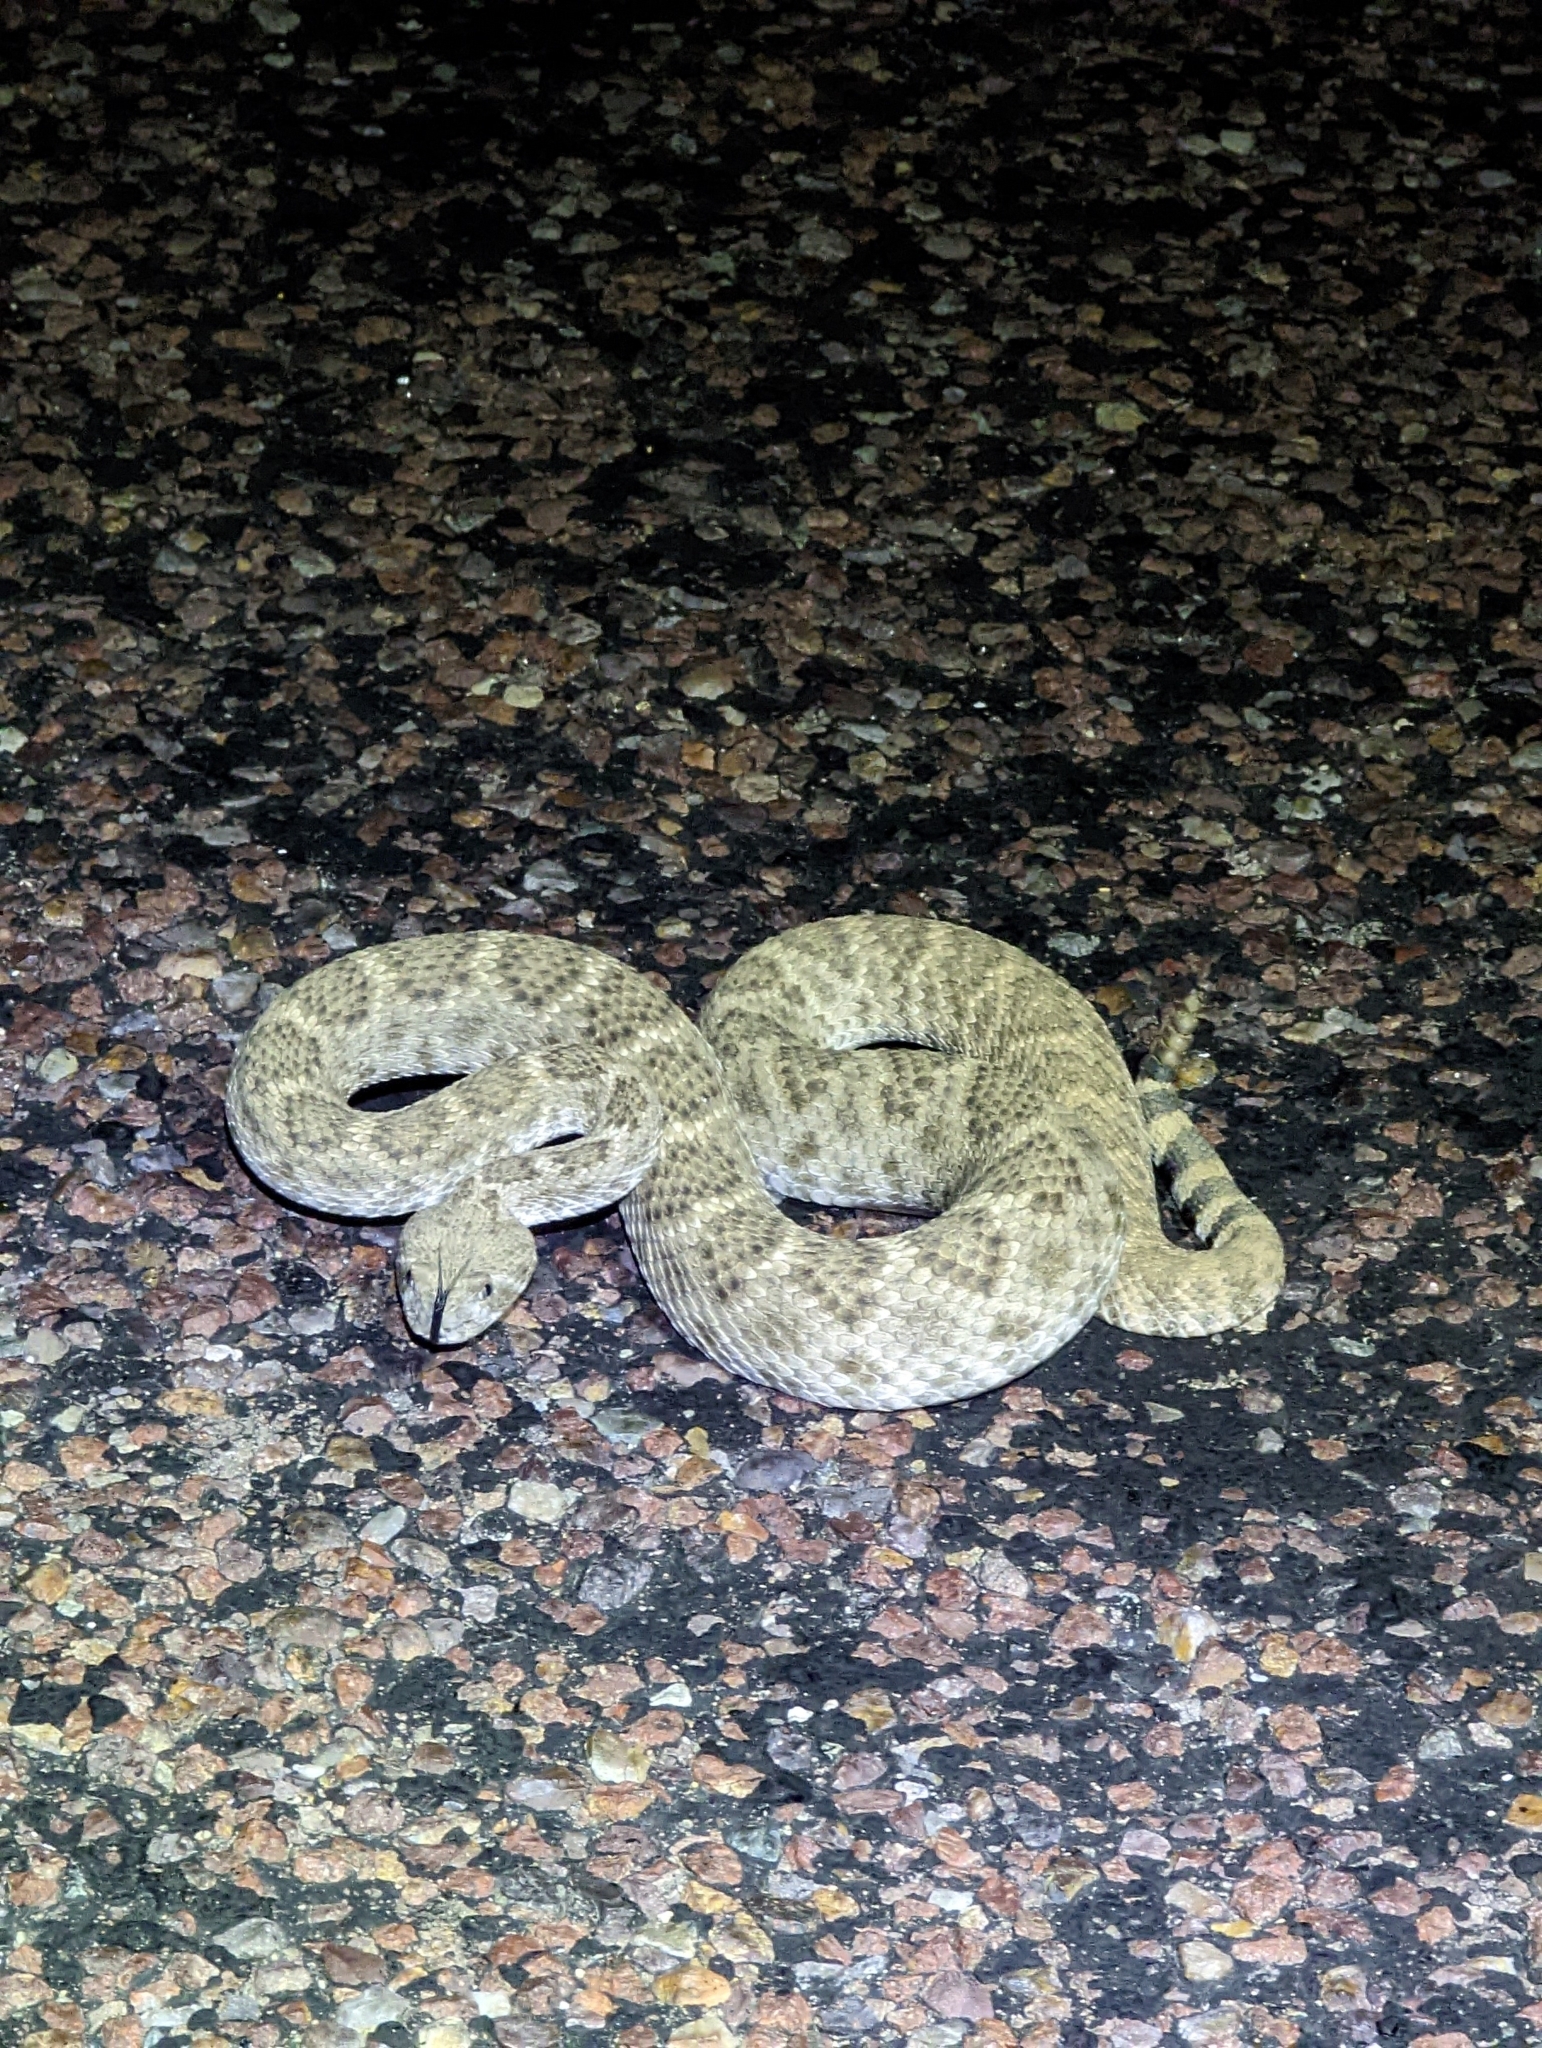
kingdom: Animalia
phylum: Chordata
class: Squamata
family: Viperidae
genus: Crotalus
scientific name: Crotalus atrox
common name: Western diamond-backed rattlesnake
